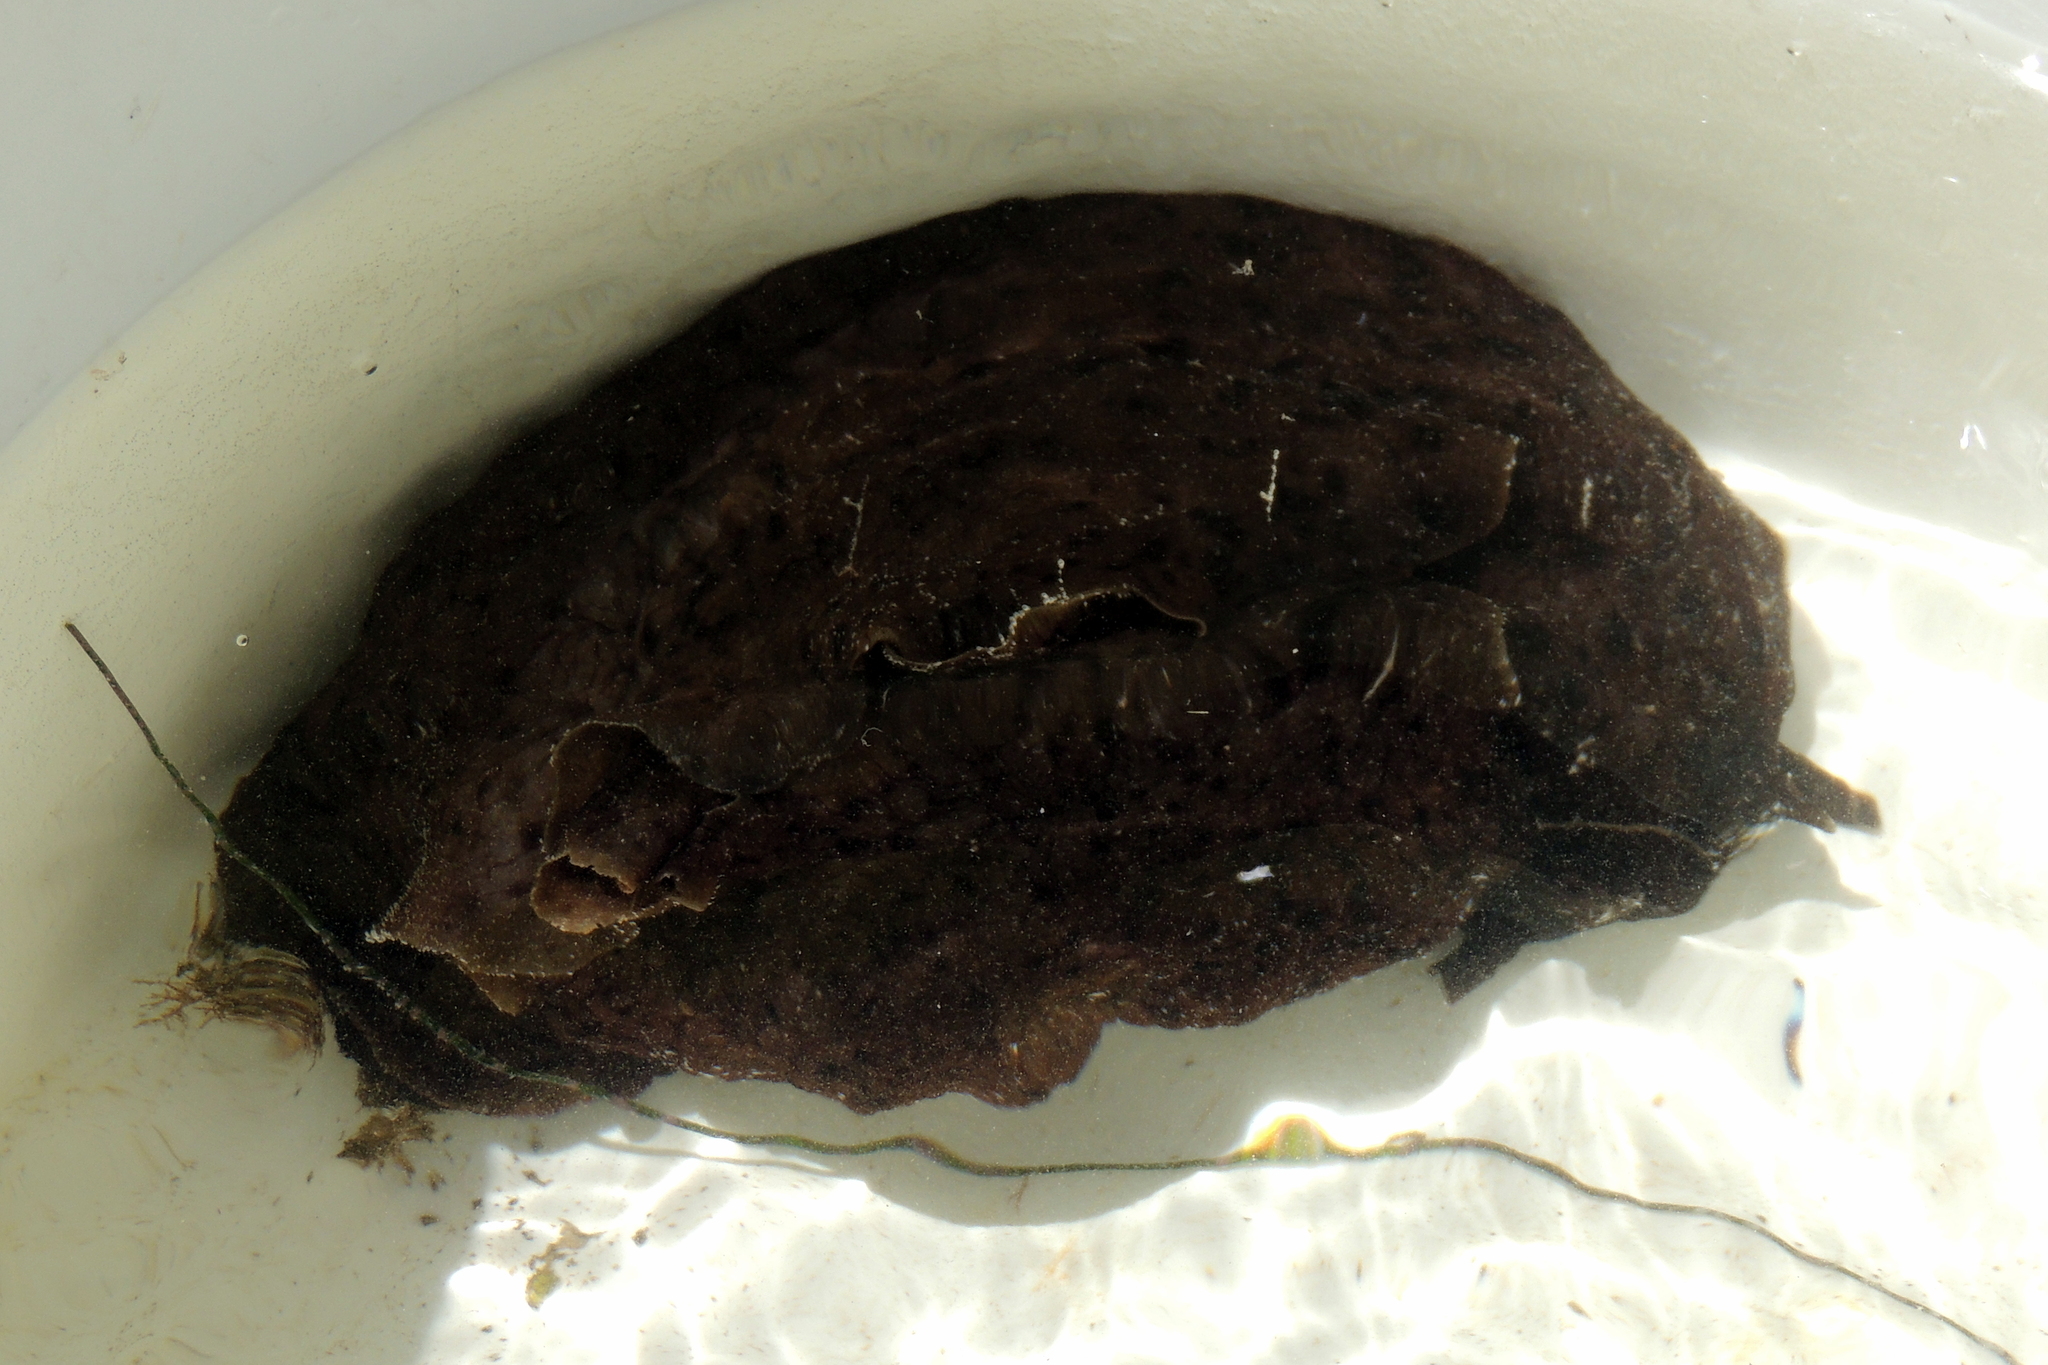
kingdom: Animalia
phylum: Mollusca
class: Gastropoda
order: Aplysiida
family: Aplysiidae
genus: Aplysia
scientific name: Aplysia californica
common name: California seahare
